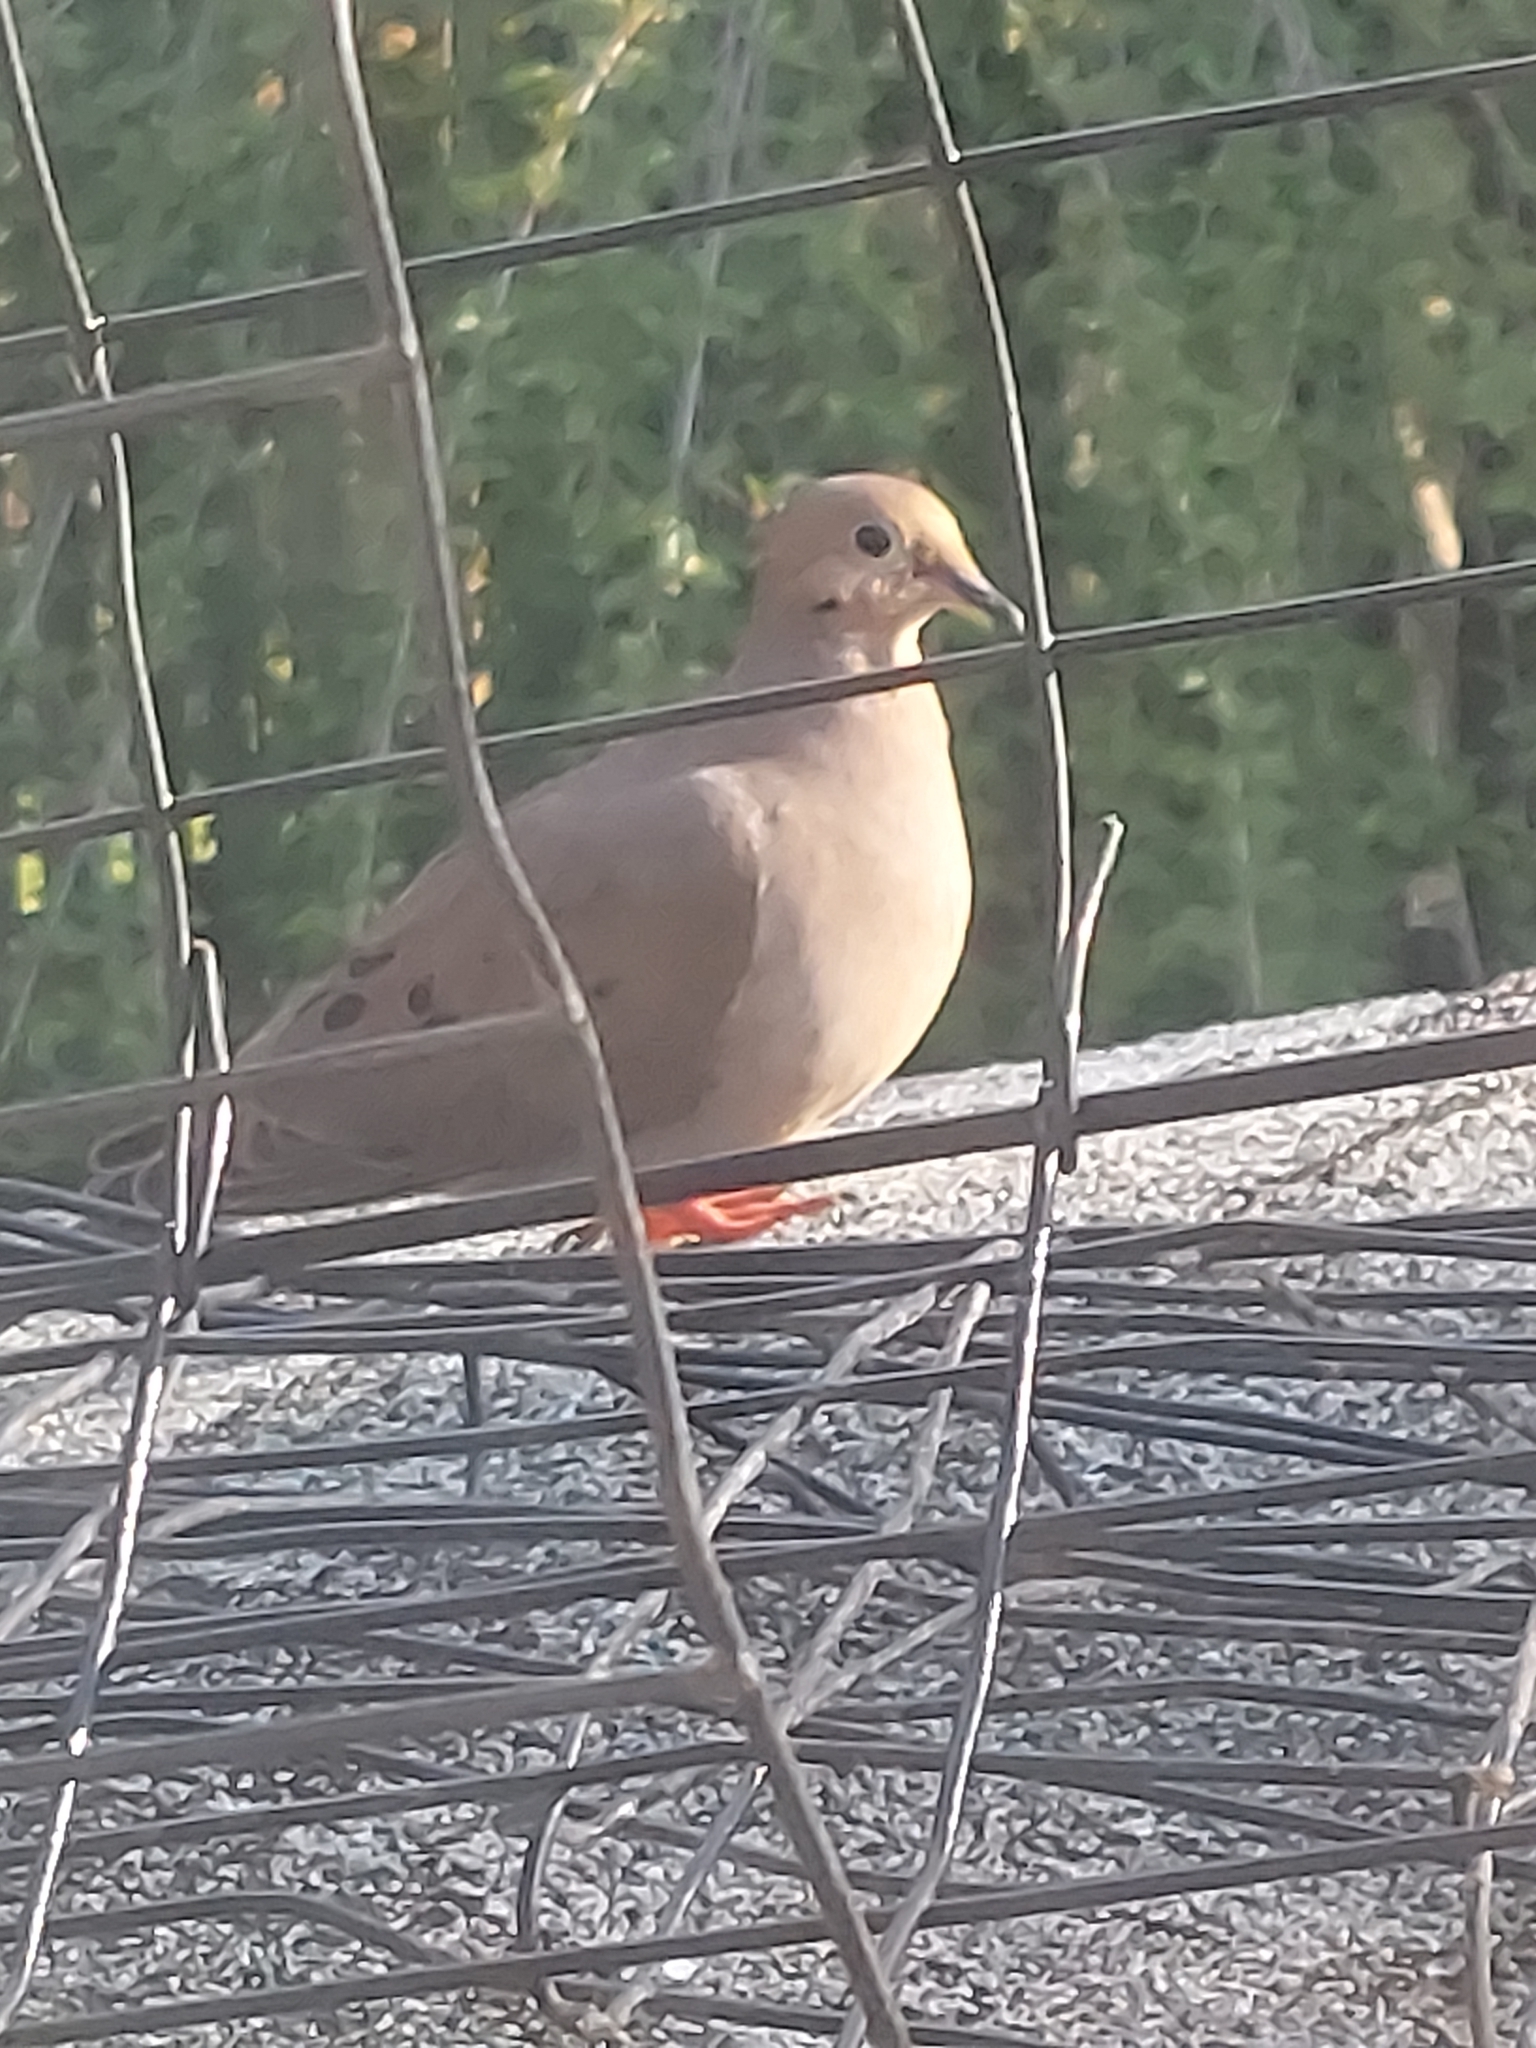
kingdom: Animalia
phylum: Chordata
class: Aves
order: Columbiformes
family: Columbidae
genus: Zenaida
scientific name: Zenaida macroura
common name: Mourning dove
